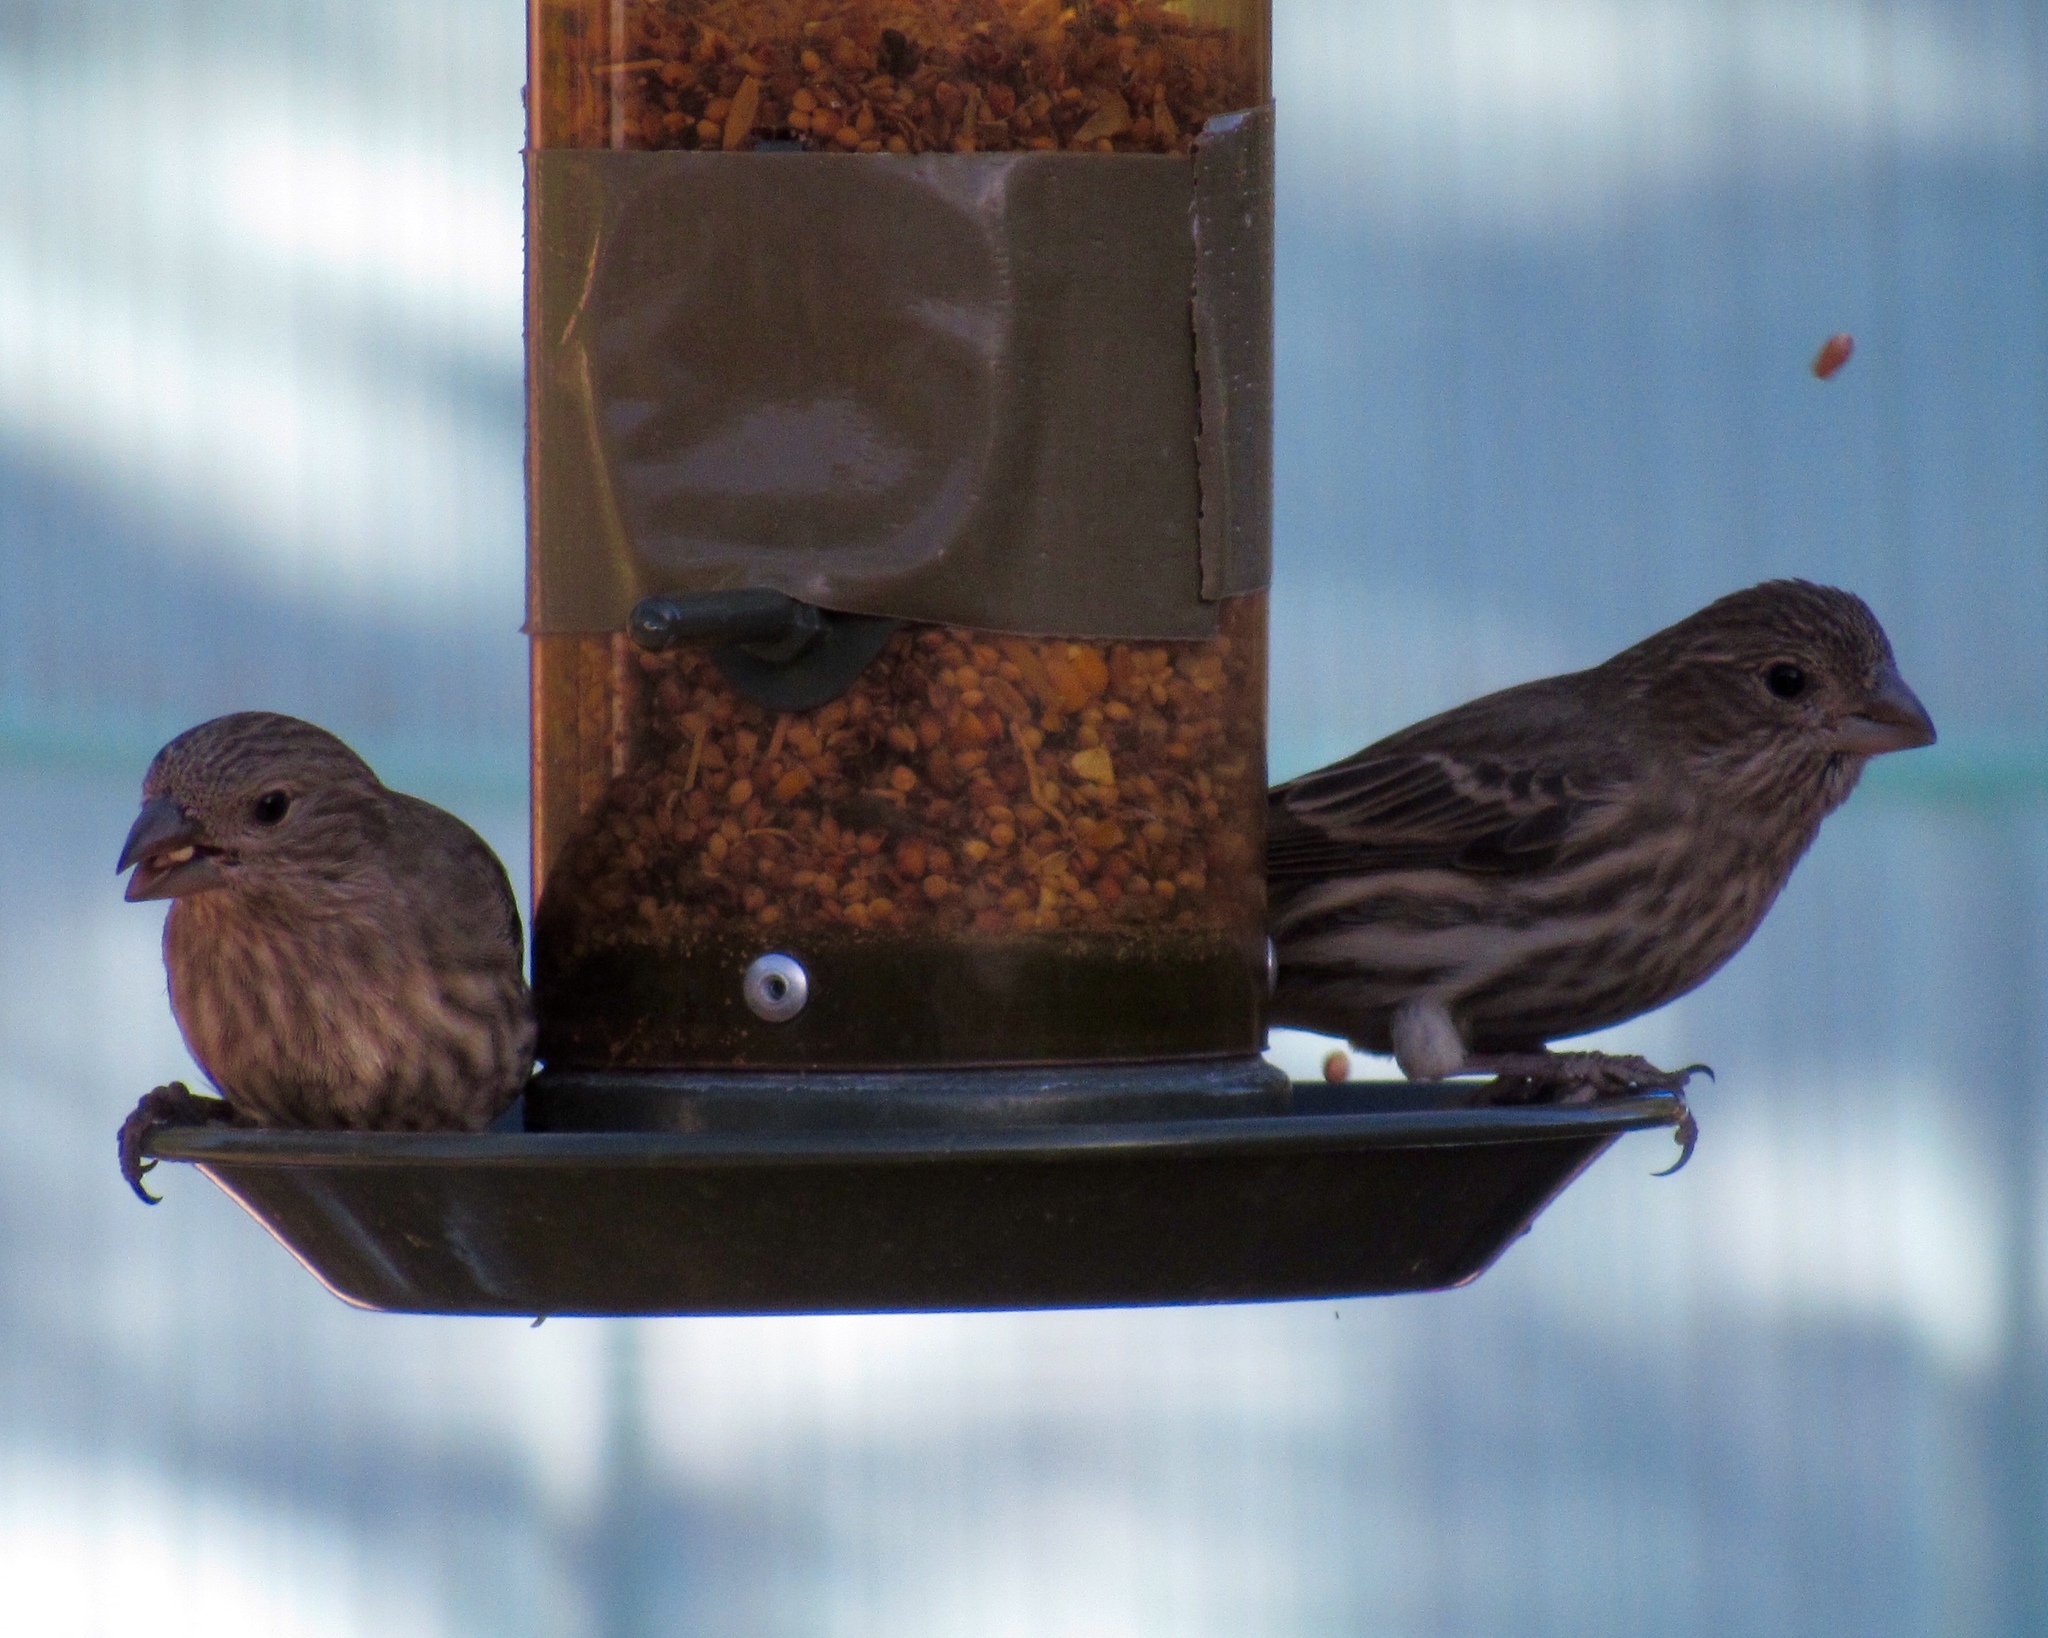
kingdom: Animalia
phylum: Chordata
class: Aves
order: Passeriformes
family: Fringillidae
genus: Haemorhous
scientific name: Haemorhous mexicanus
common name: House finch
